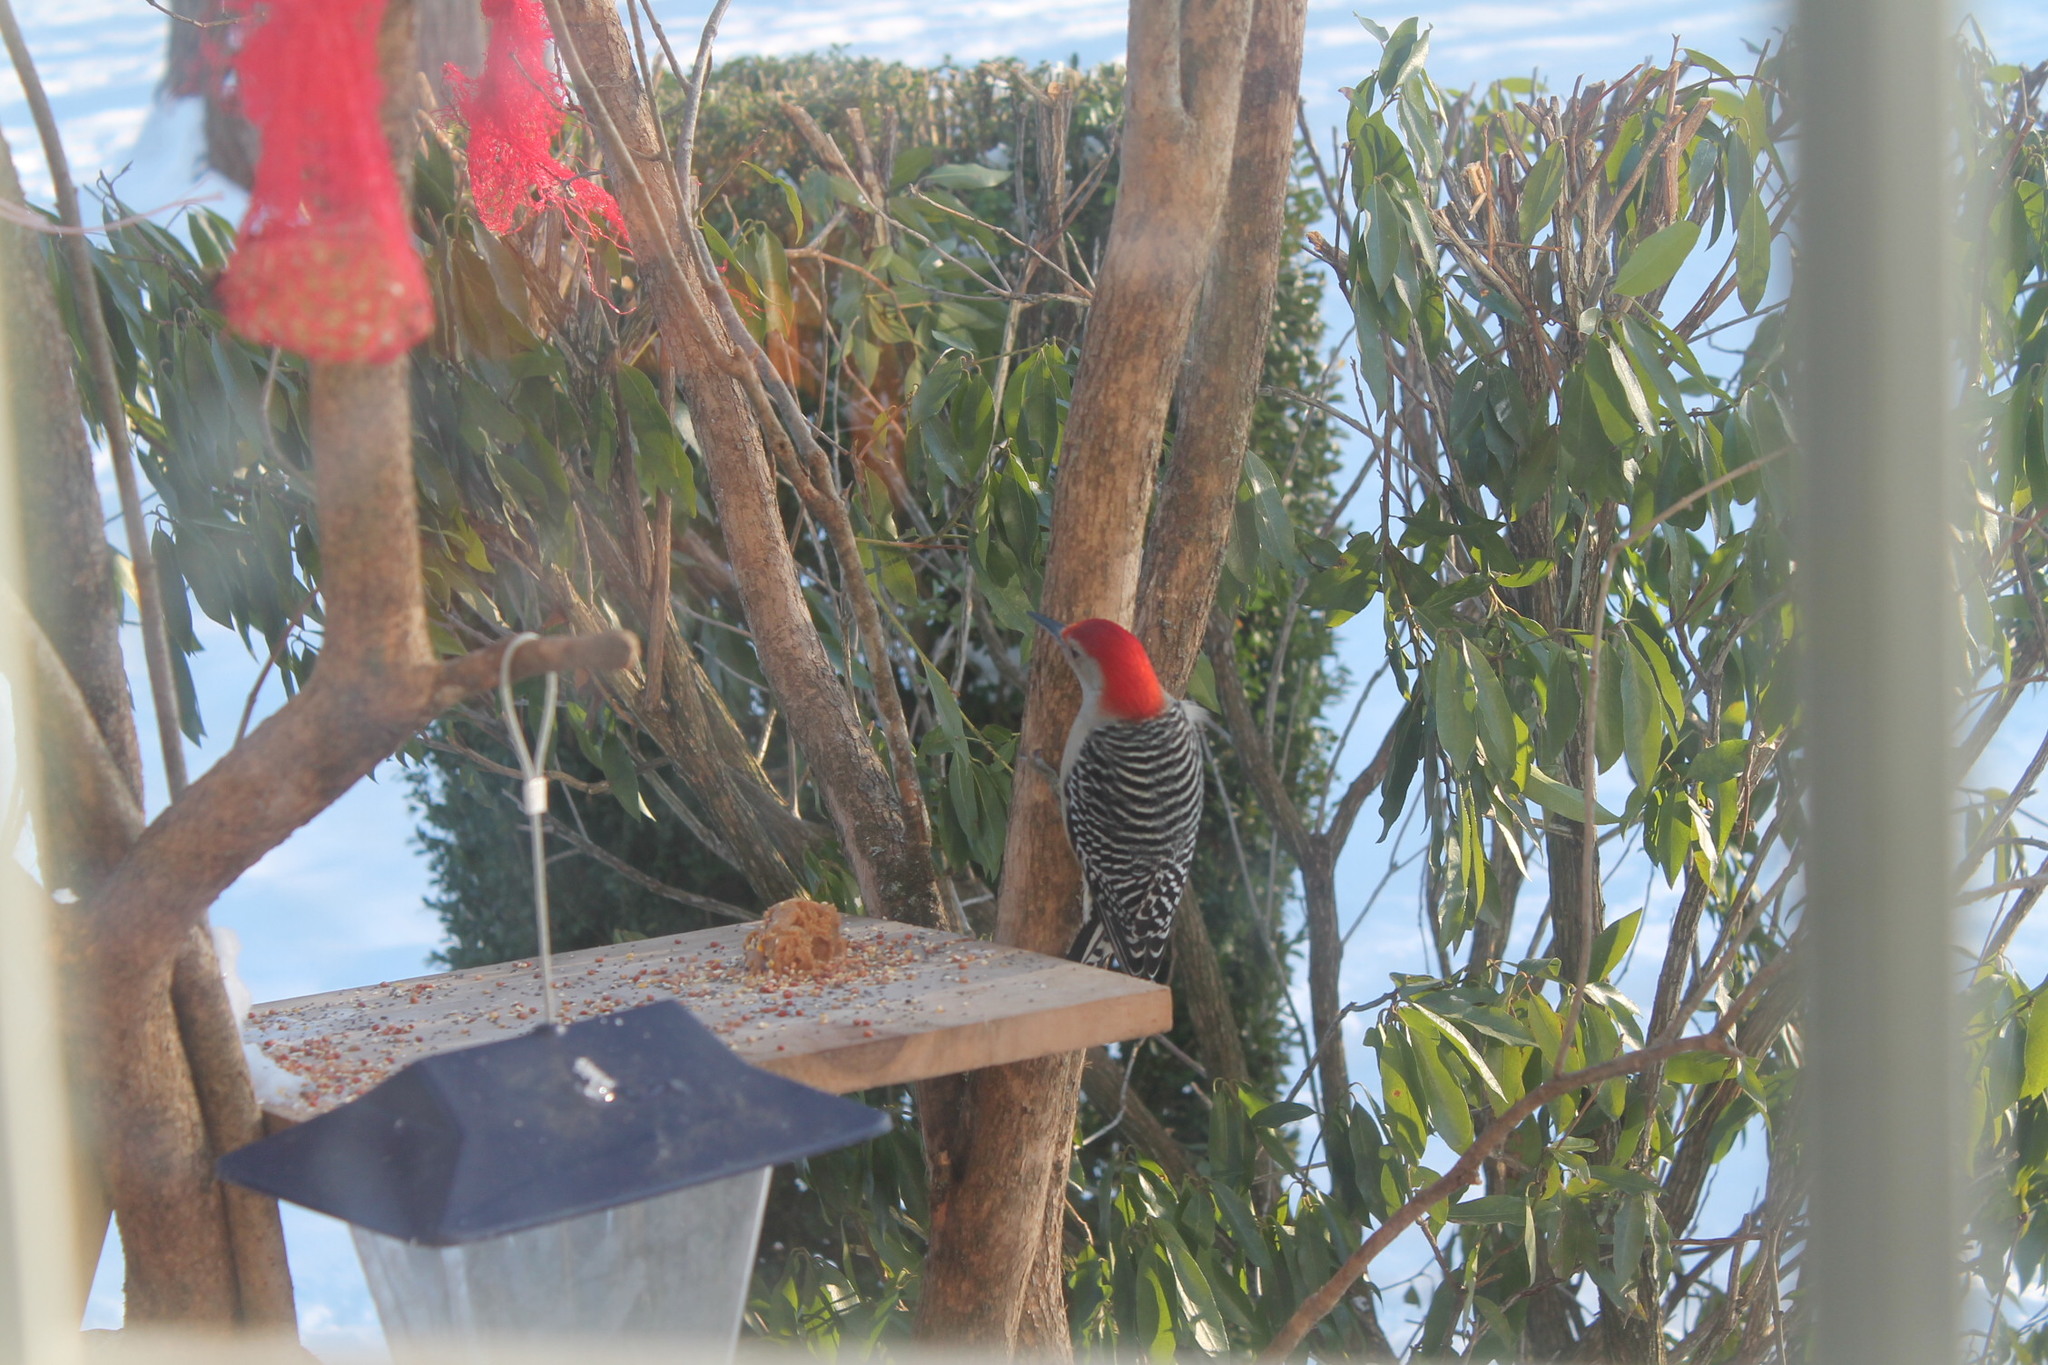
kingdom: Animalia
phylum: Chordata
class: Aves
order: Piciformes
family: Picidae
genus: Melanerpes
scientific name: Melanerpes carolinus
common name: Red-bellied woodpecker
